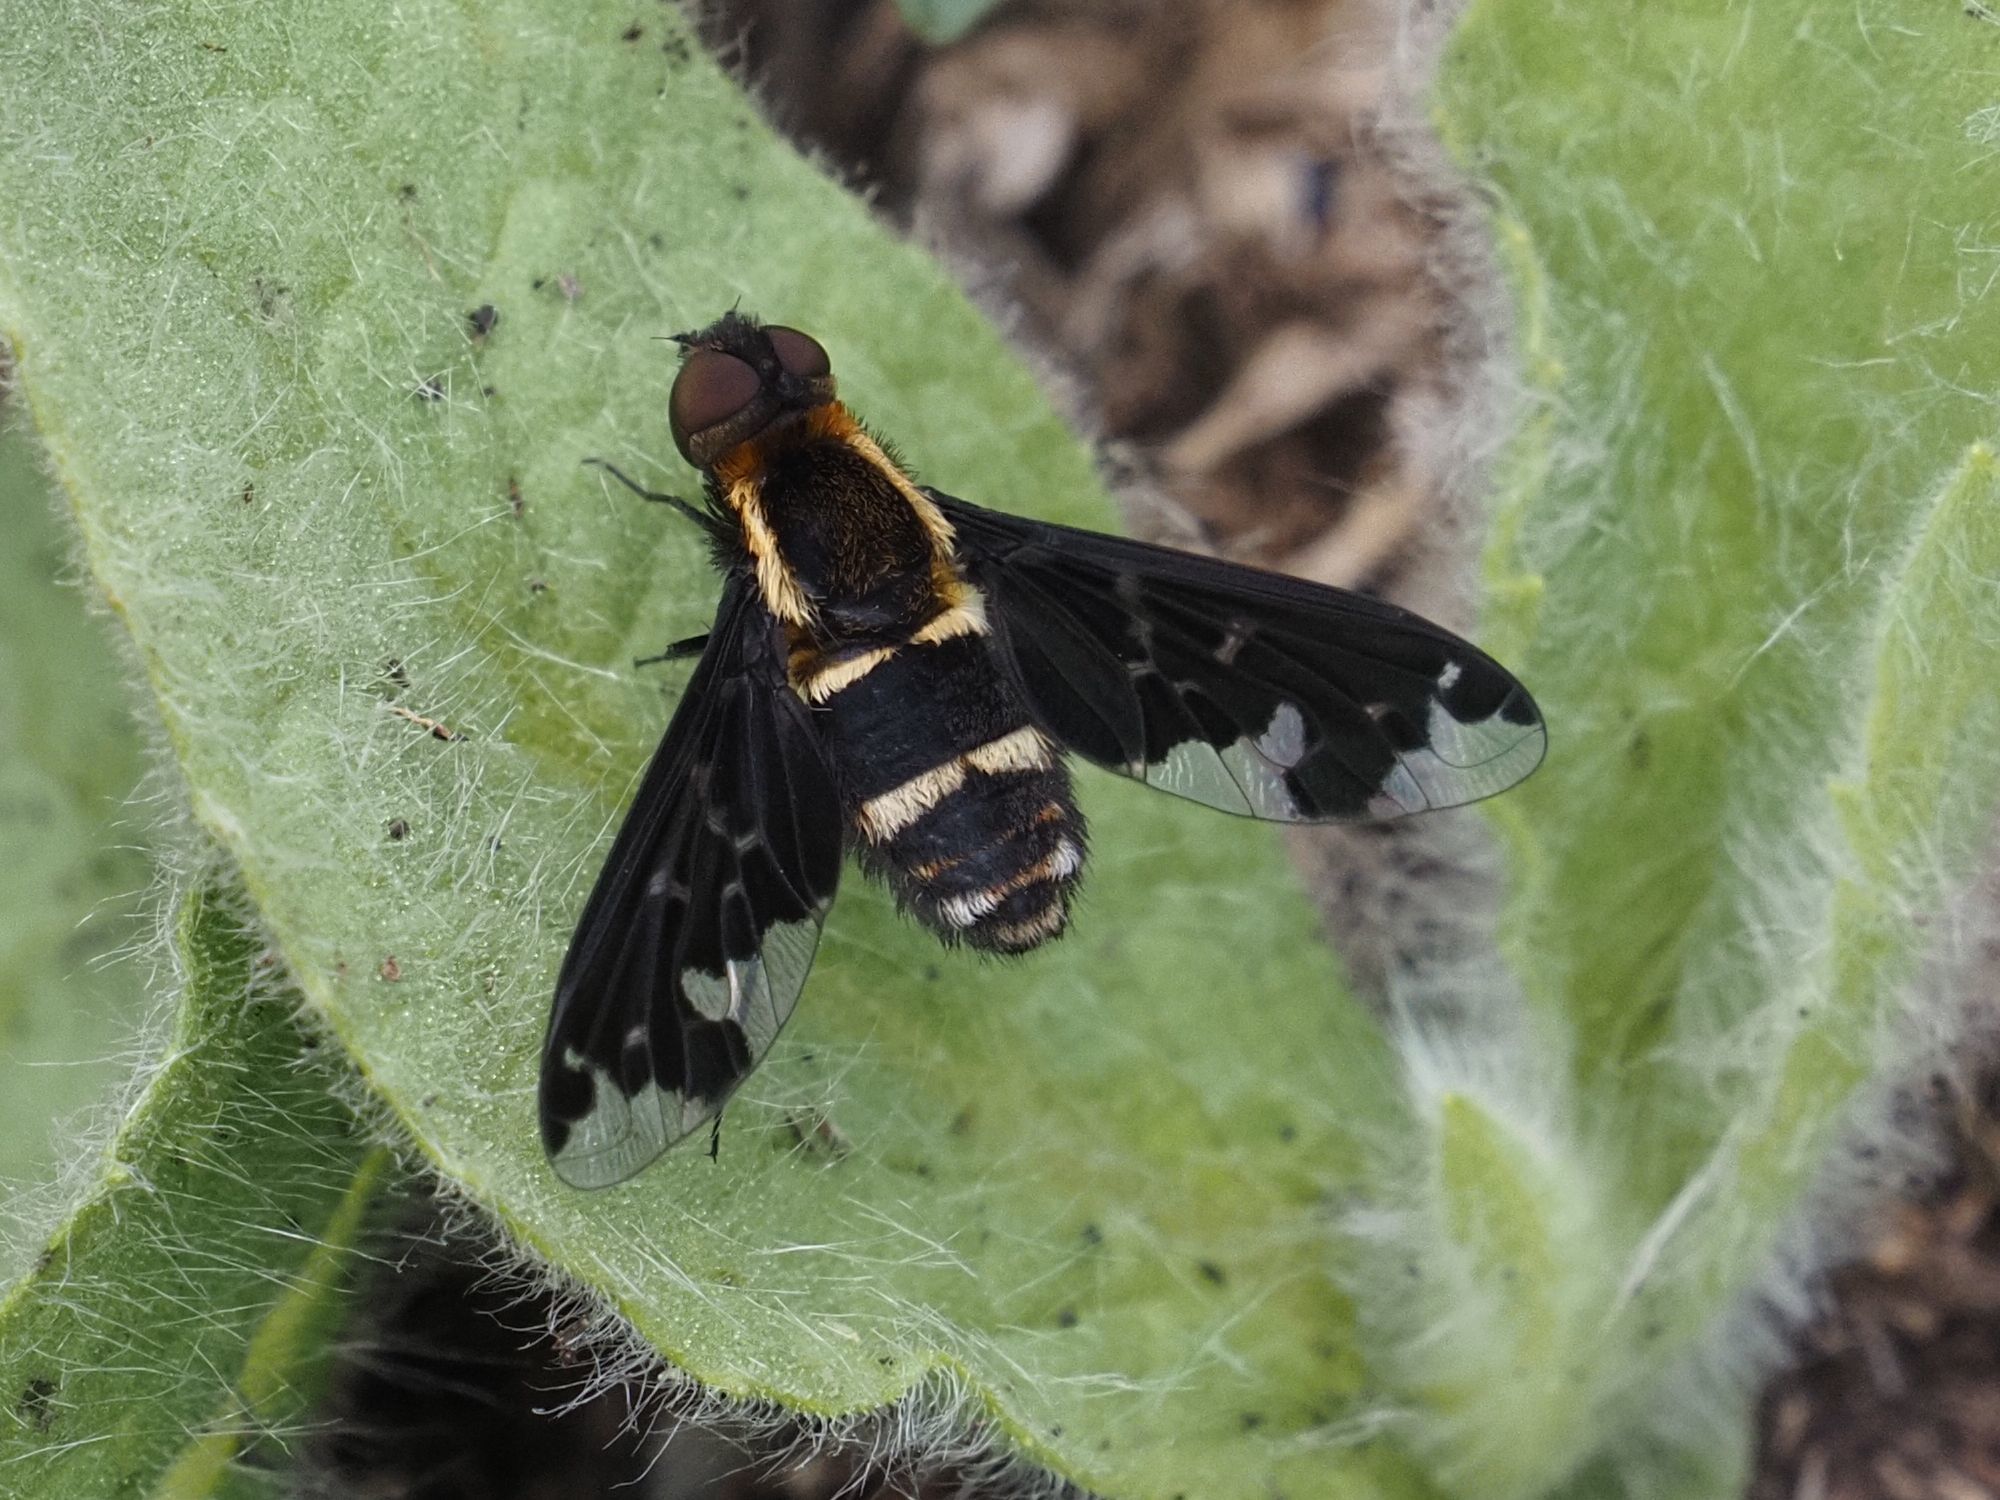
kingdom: Animalia
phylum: Arthropoda
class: Insecta
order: Diptera
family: Bombyliidae
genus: Hemipenthes
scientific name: Hemipenthes maura
